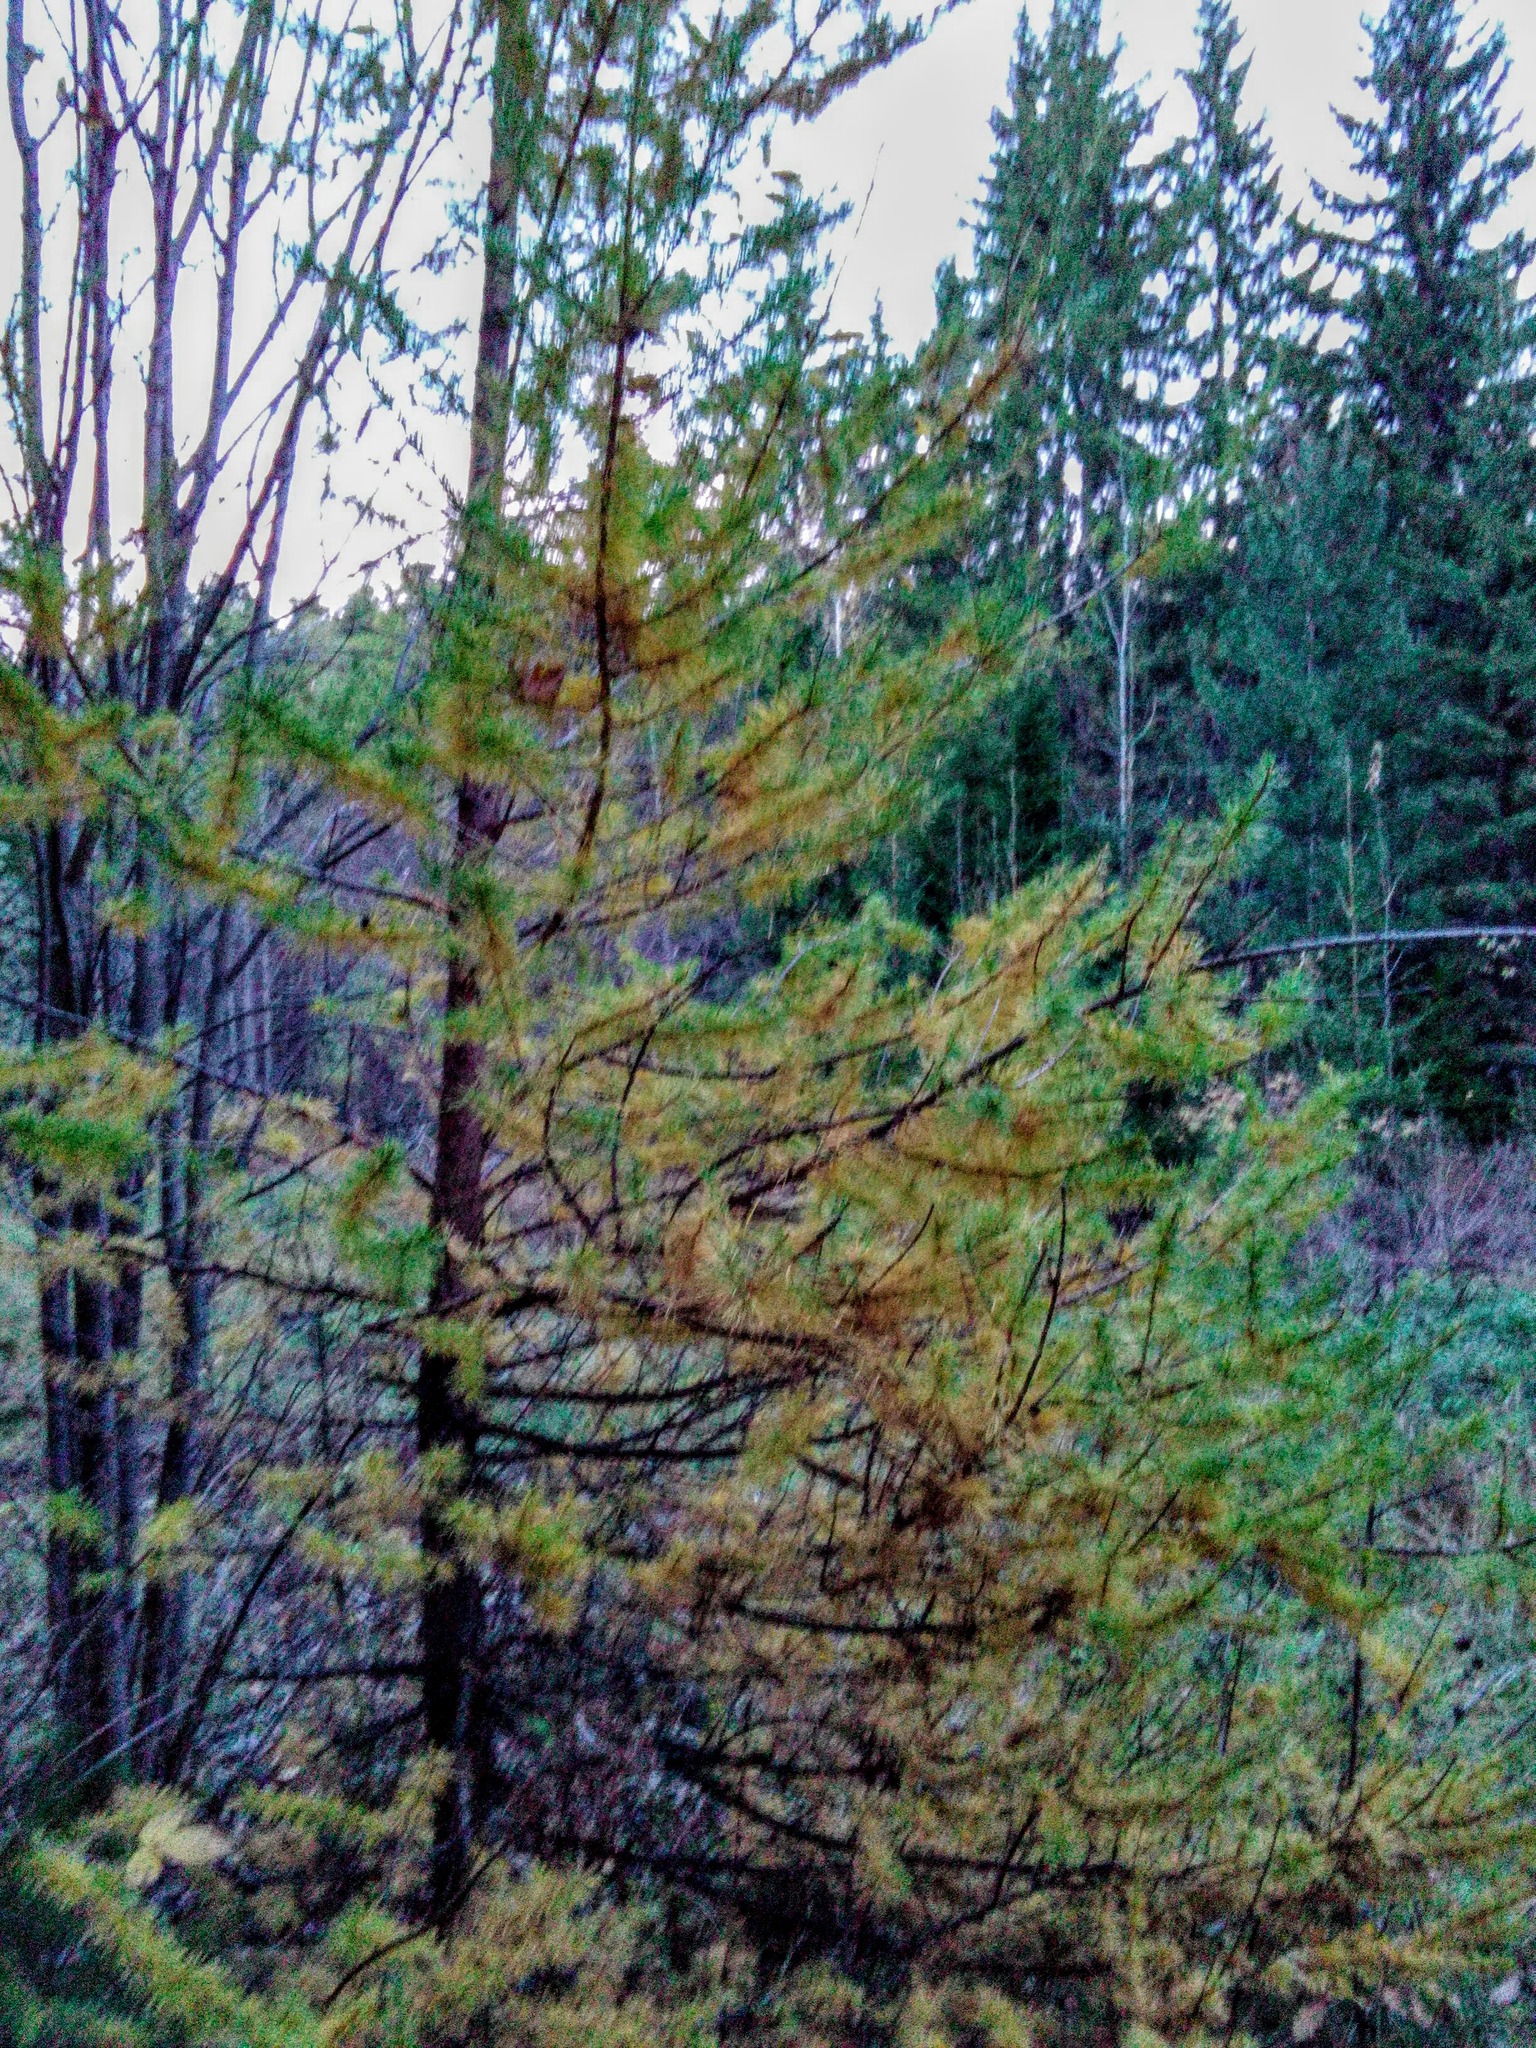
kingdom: Plantae
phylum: Tracheophyta
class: Pinopsida
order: Pinales
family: Pinaceae
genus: Larix
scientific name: Larix sibirica
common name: Siberian larch
